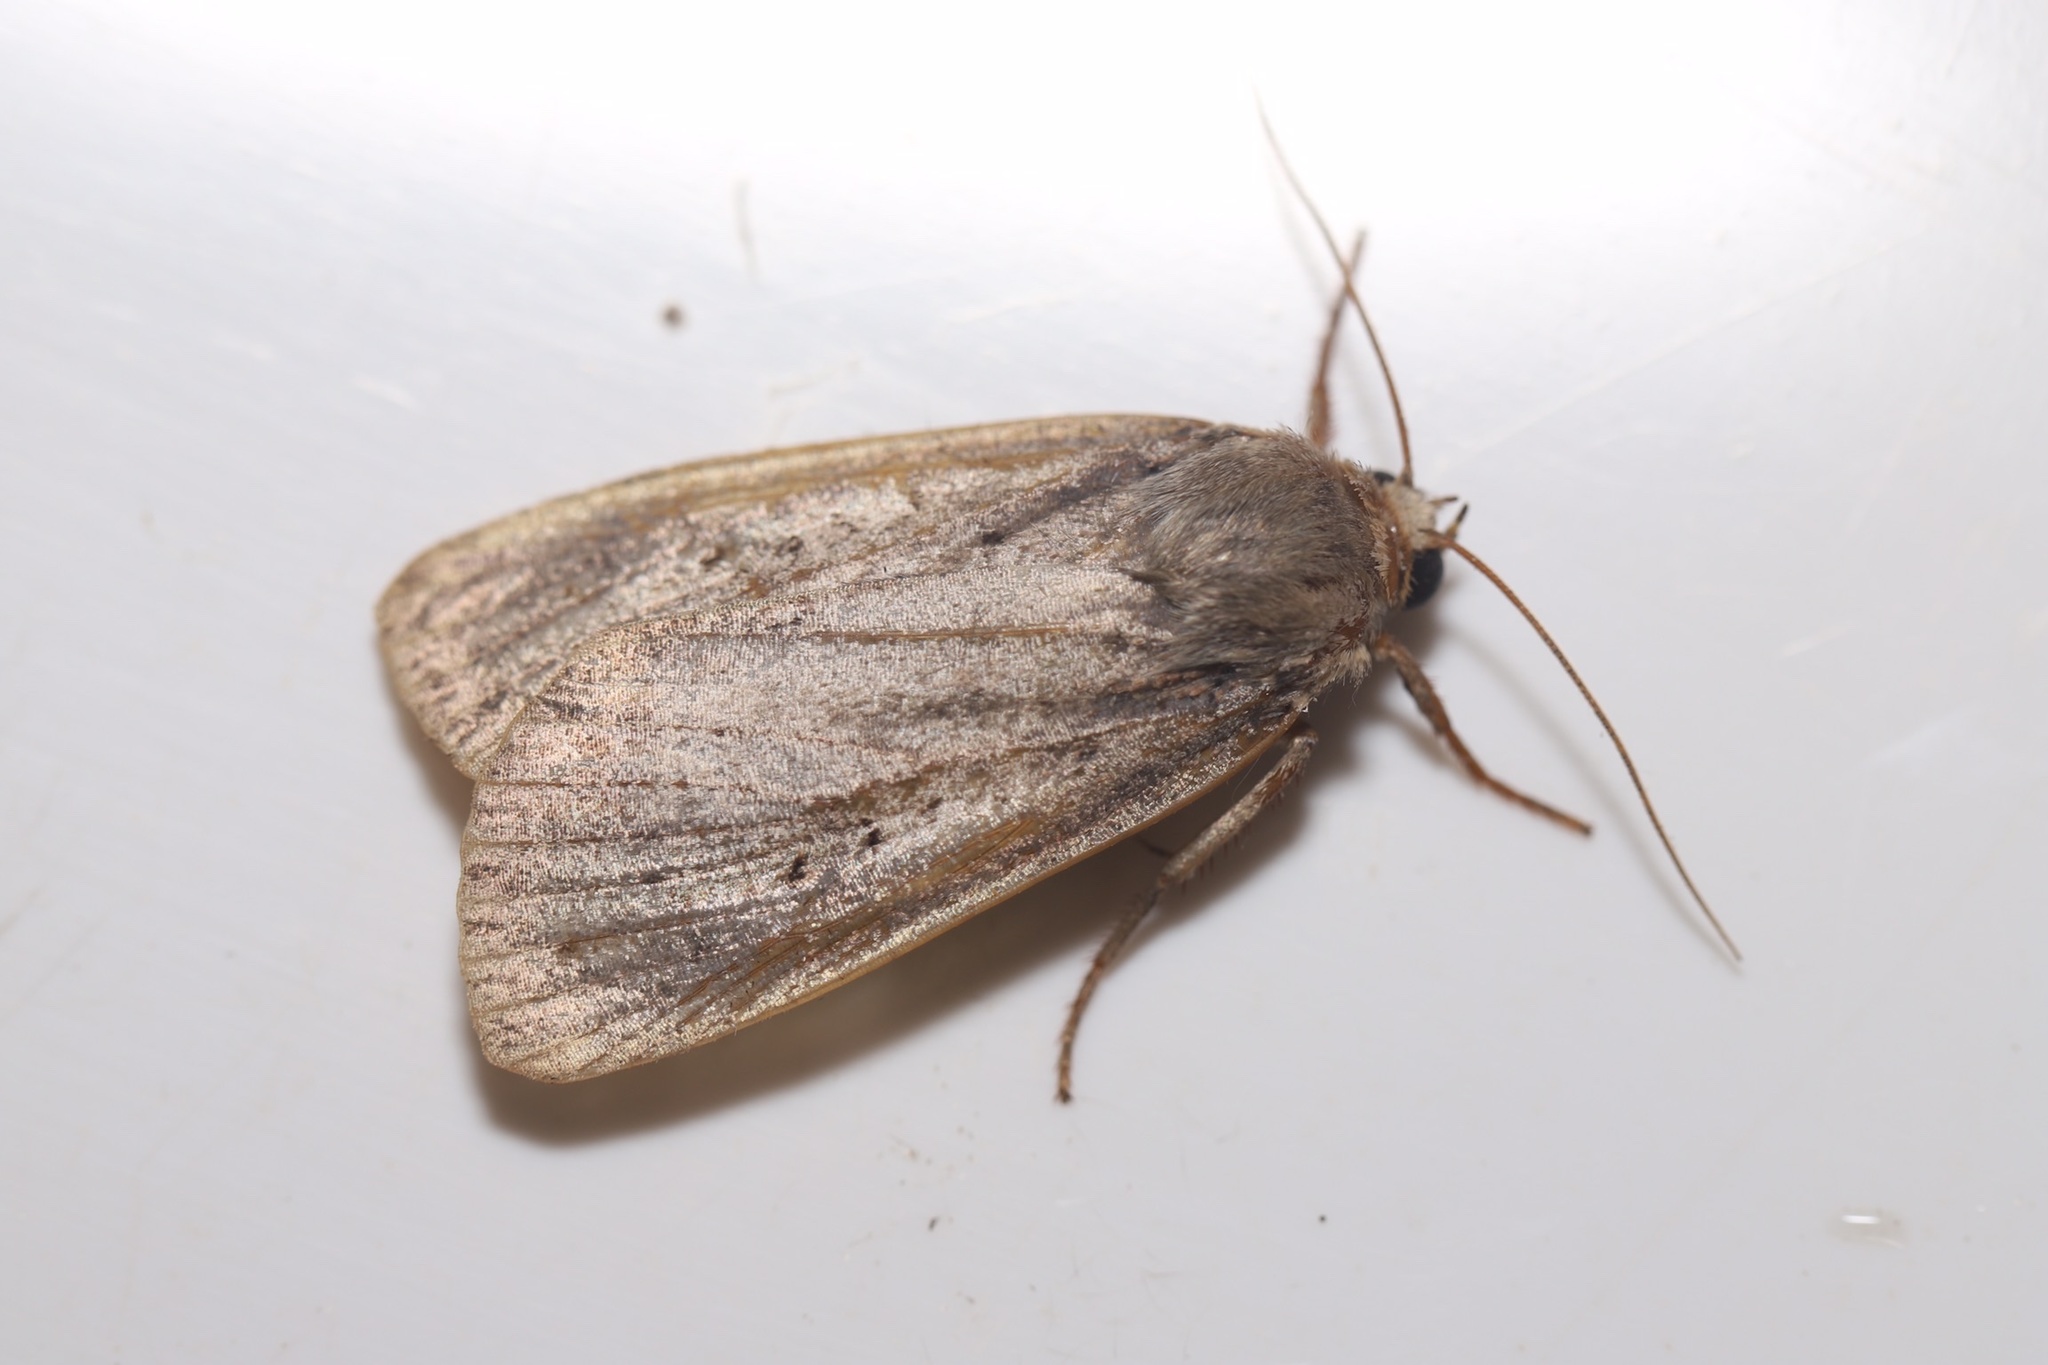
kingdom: Animalia
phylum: Arthropoda
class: Insecta
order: Lepidoptera
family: Noctuidae
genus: Amphipyra
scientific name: Amphipyra tragopoginis
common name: Mouse moth
